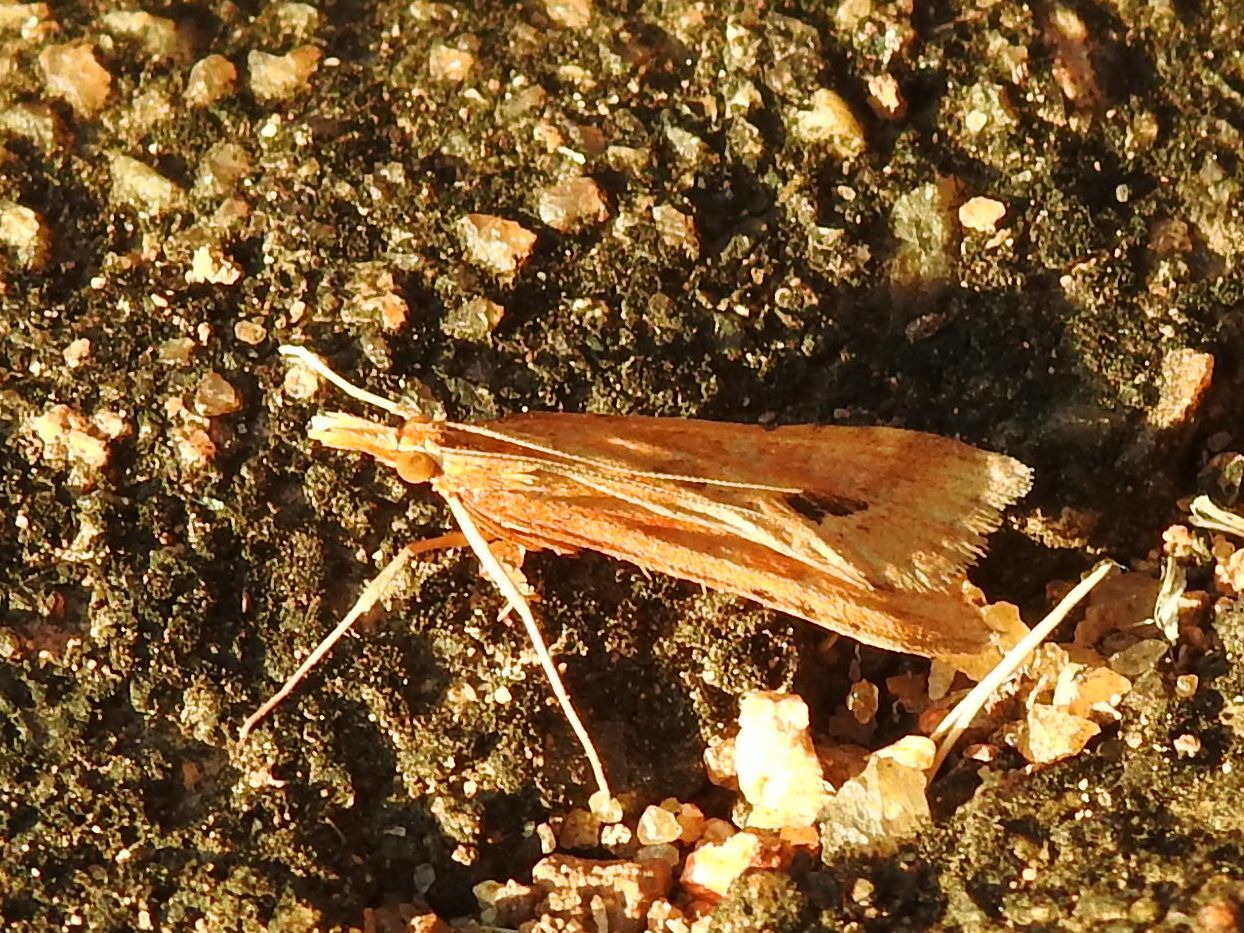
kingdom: Animalia
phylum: Arthropoda
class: Insecta
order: Lepidoptera
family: Crambidae
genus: Diasemia
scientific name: Diasemia monostigma
